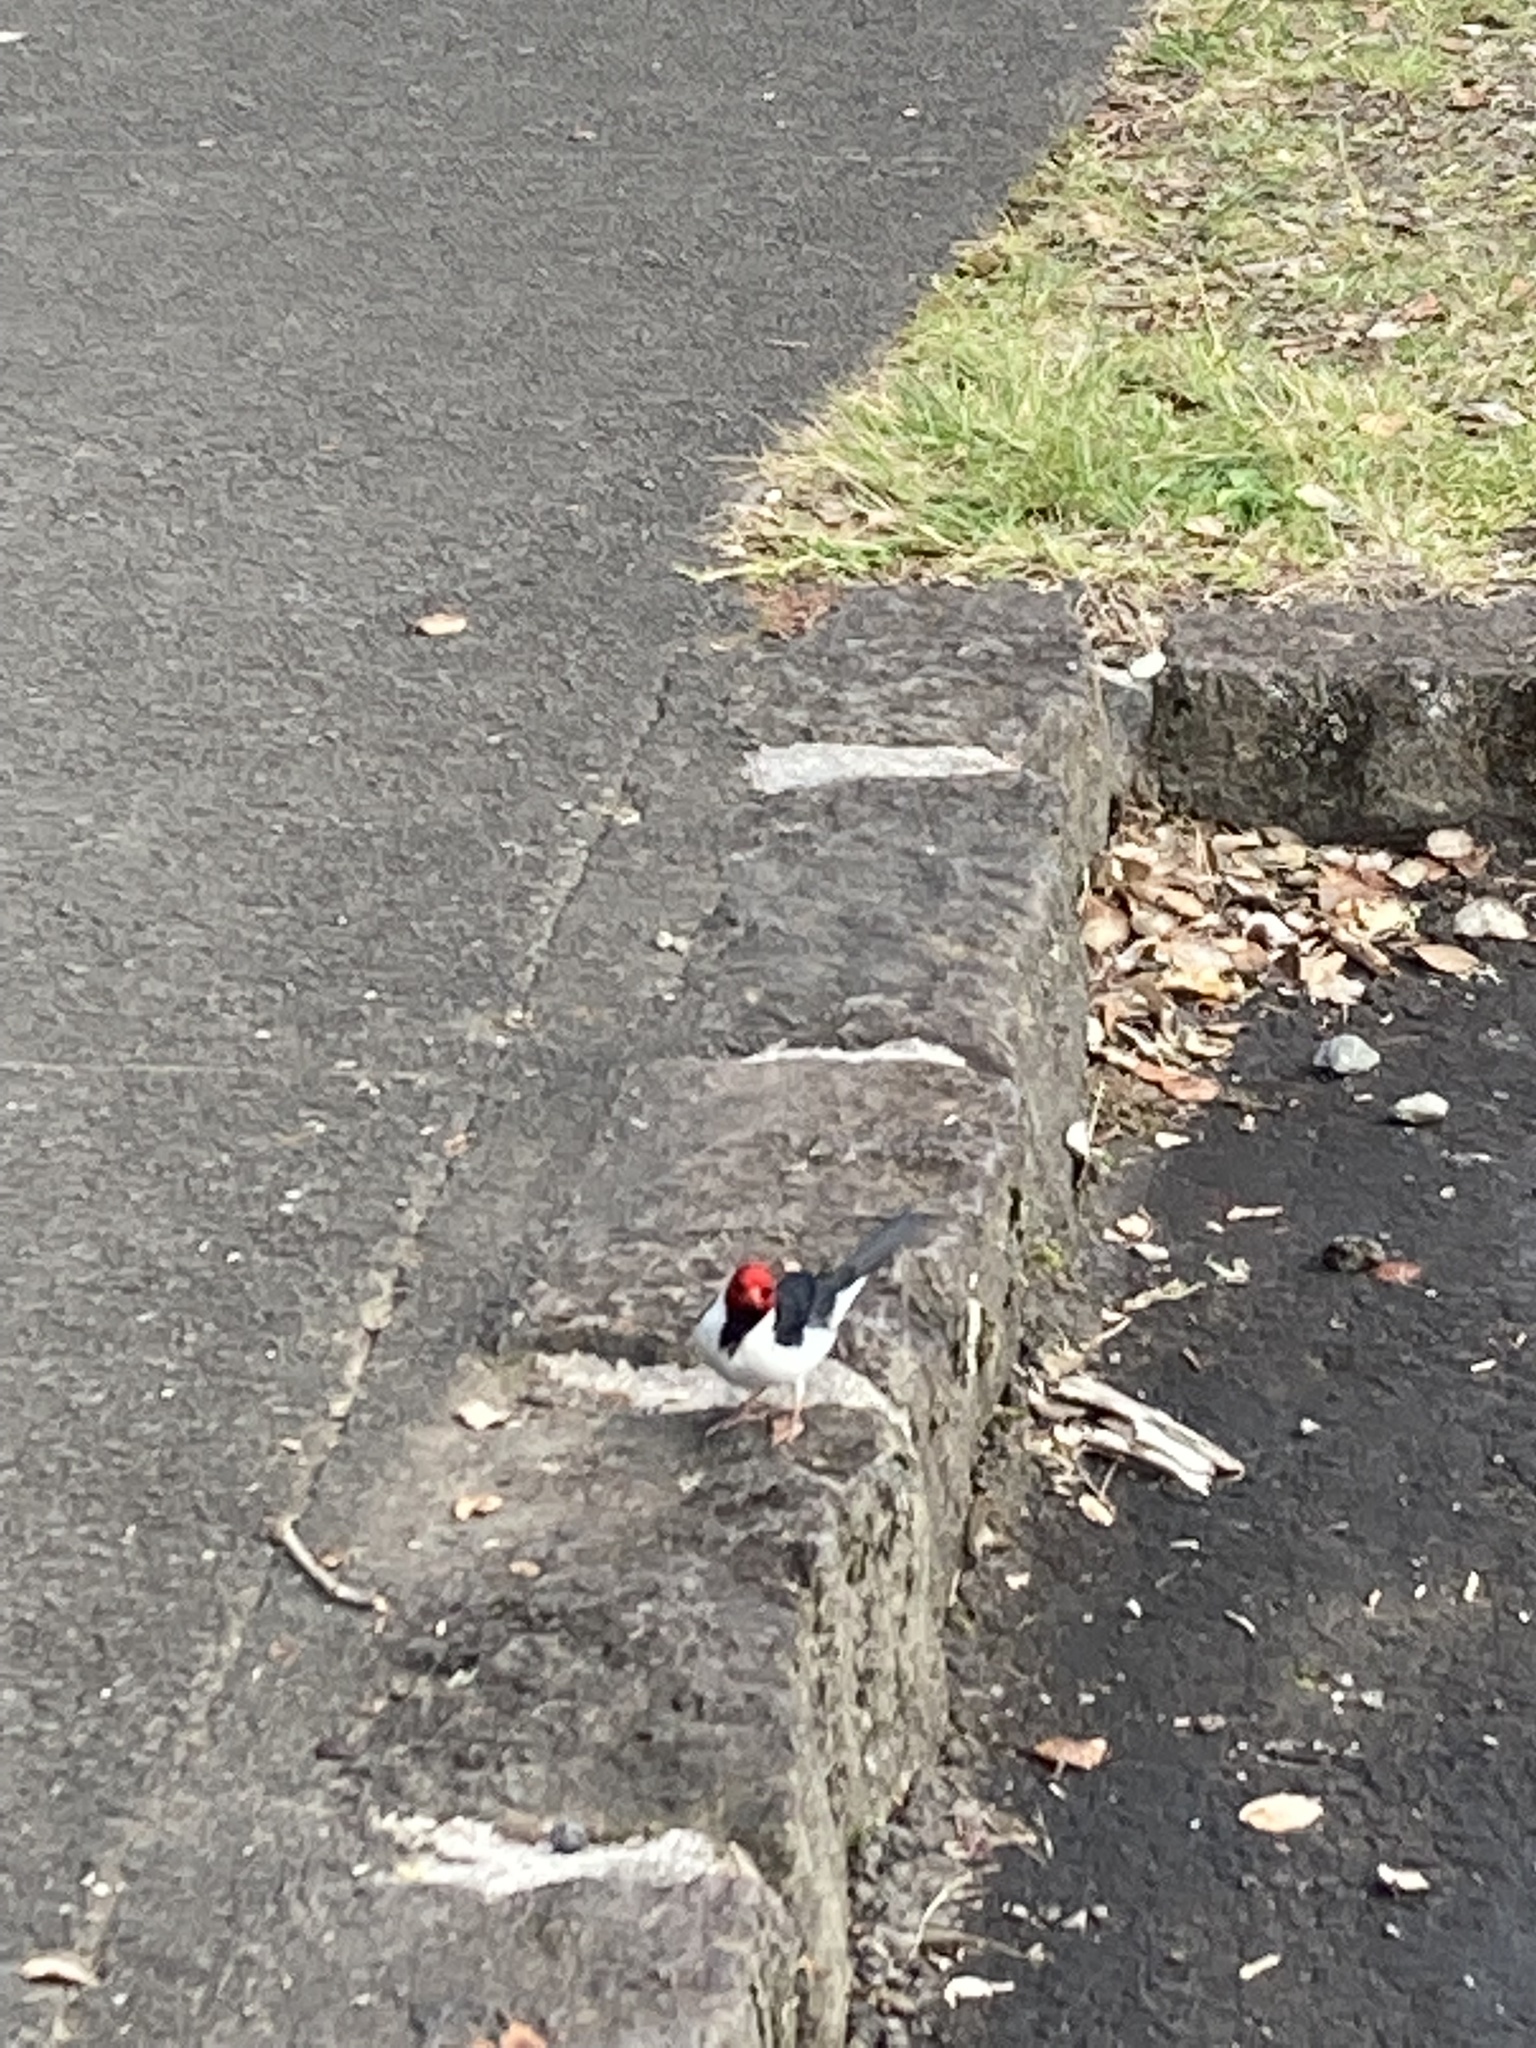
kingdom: Animalia
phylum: Chordata
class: Aves
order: Passeriformes
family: Thraupidae
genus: Paroaria
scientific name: Paroaria capitata
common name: Yellow-billed cardinal
